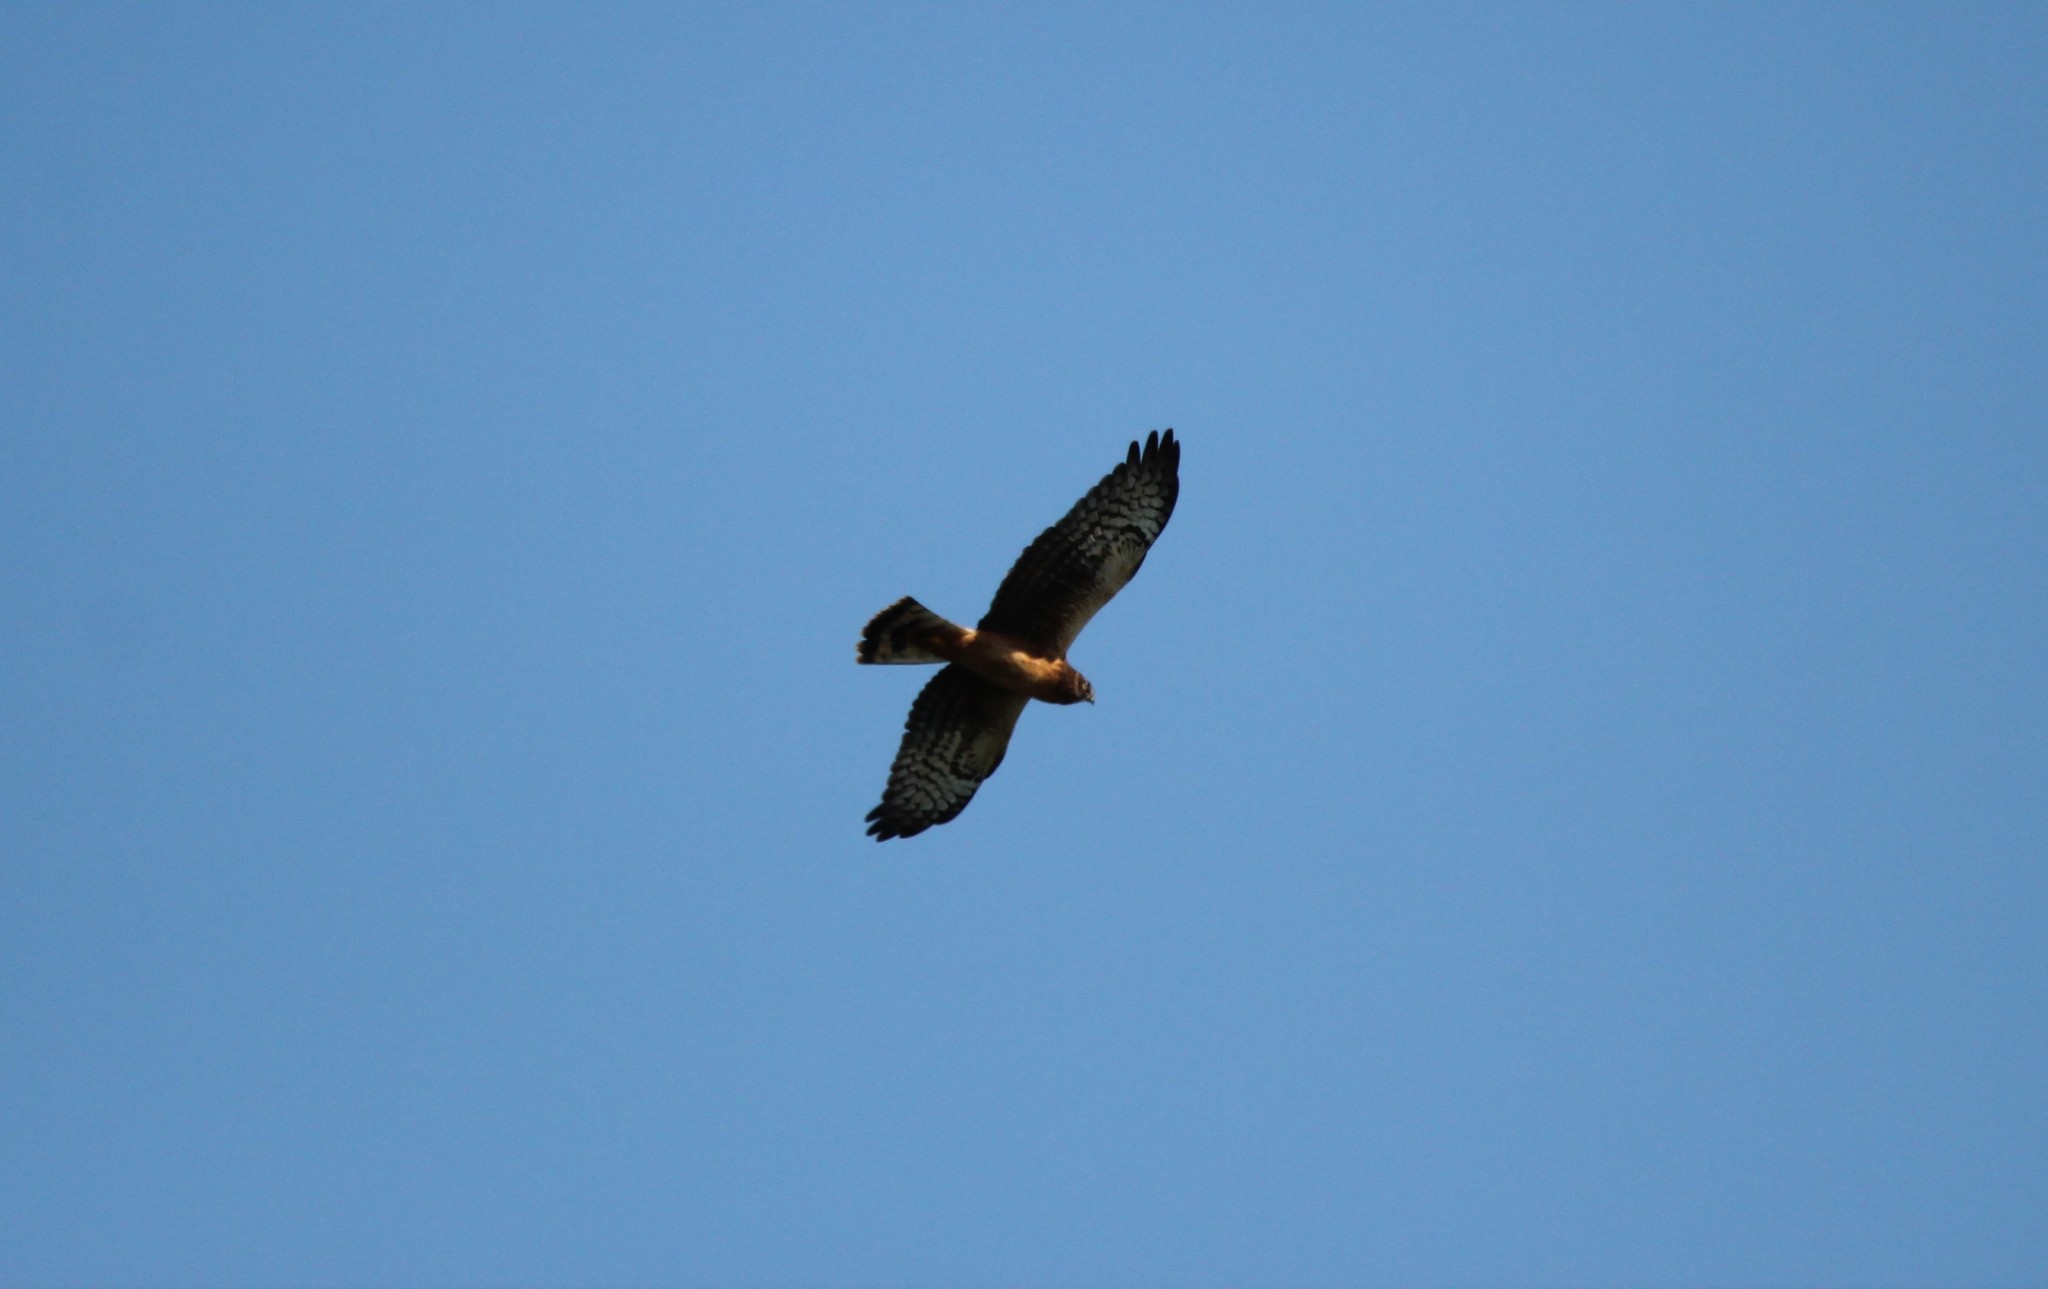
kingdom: Animalia
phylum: Chordata
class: Aves
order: Accipitriformes
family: Accipitridae
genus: Circus
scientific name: Circus cyaneus
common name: Hen harrier
